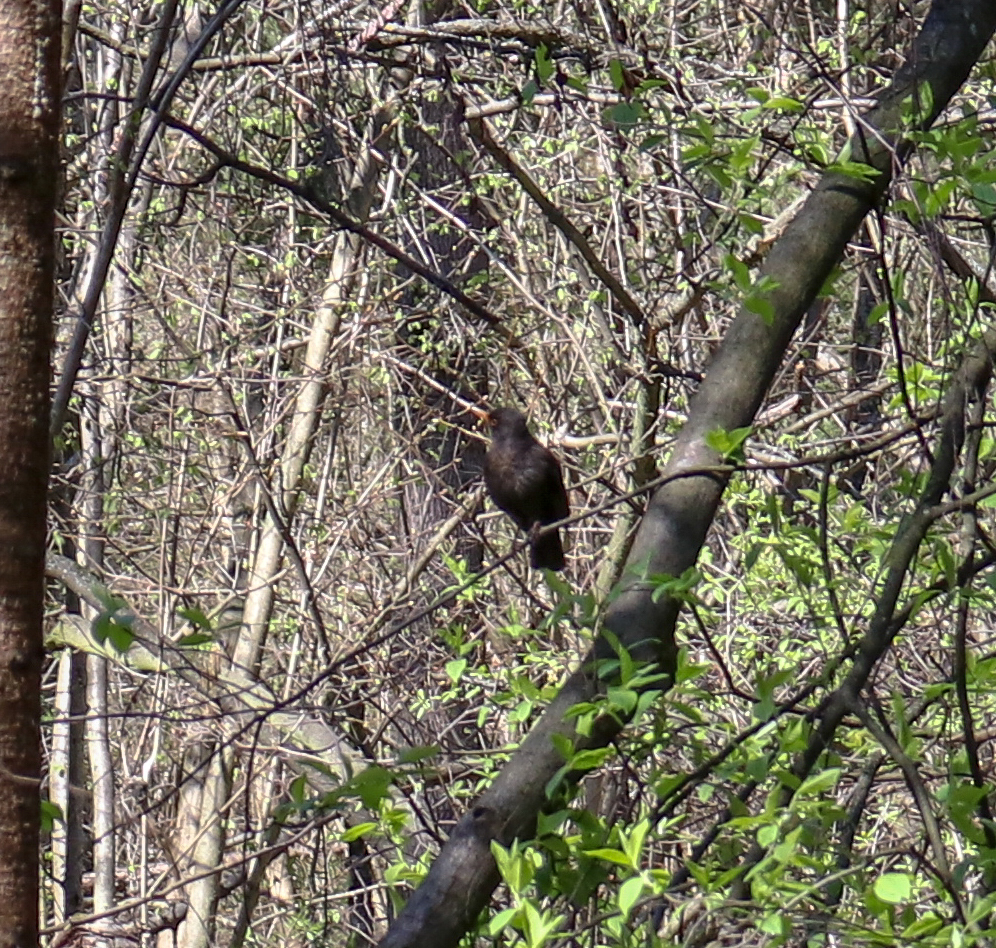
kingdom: Animalia
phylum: Chordata
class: Aves
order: Passeriformes
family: Turdidae
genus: Turdus
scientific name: Turdus merula
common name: Common blackbird
